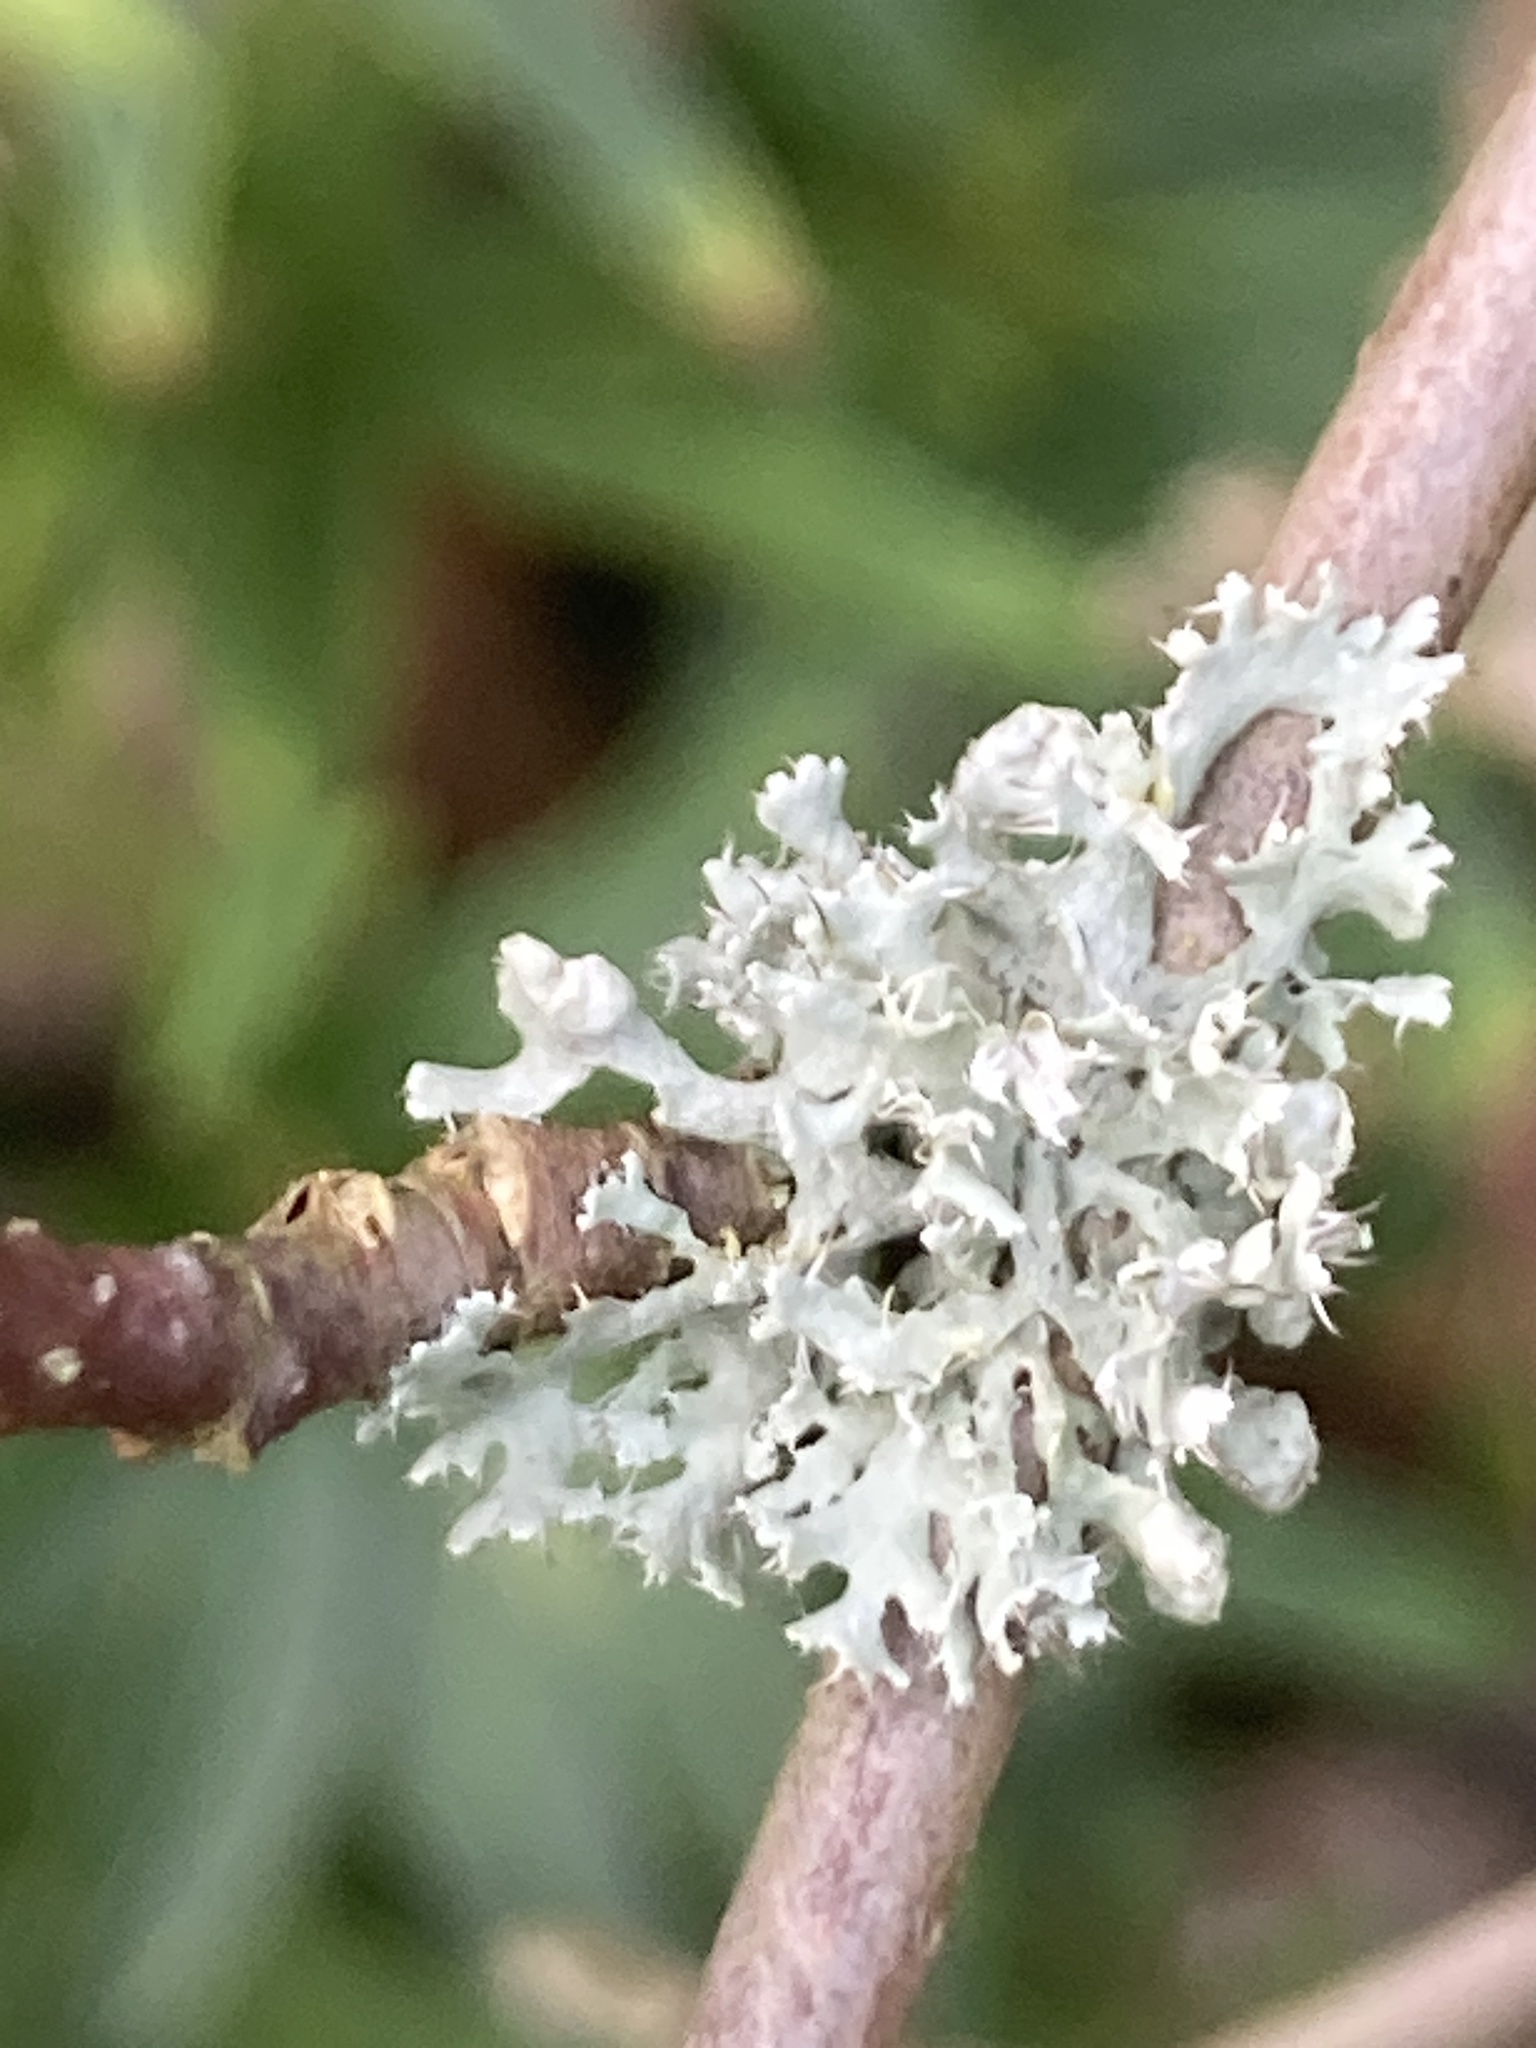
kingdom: Fungi
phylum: Ascomycota
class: Lecanoromycetes
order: Caliciales
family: Physciaceae
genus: Physcia
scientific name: Physcia adscendens
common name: Hooded rosette lichen
